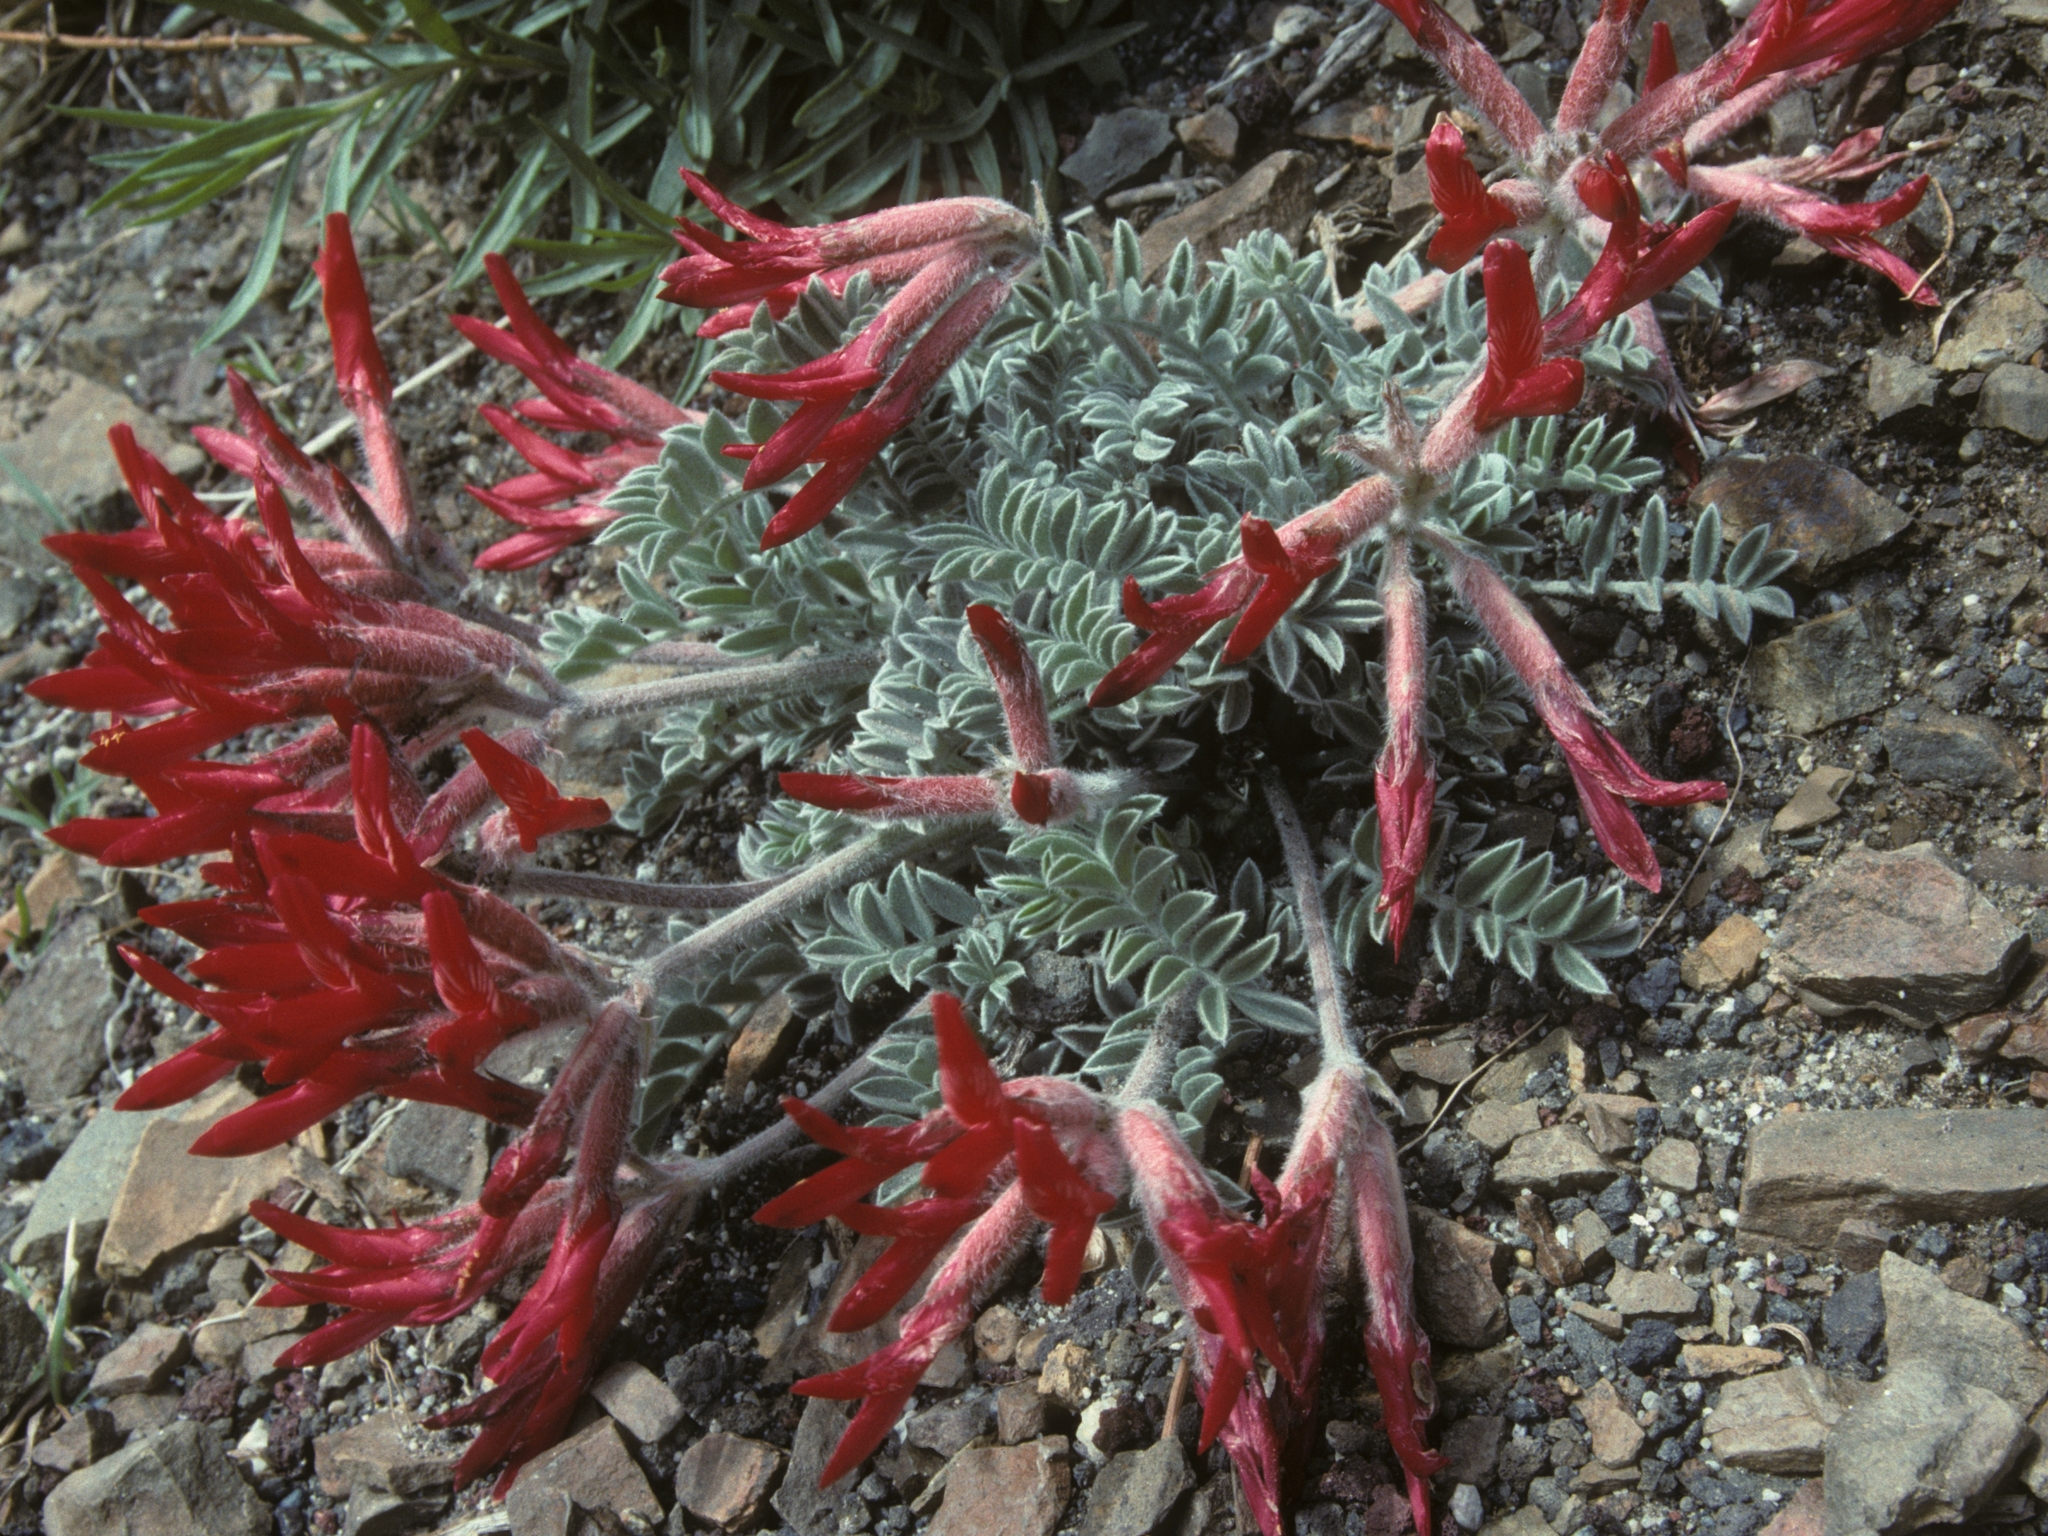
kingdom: Plantae
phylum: Tracheophyta
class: Magnoliopsida
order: Fabales
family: Fabaceae
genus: Astragalus
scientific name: Astragalus coccineus
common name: Scarlet milk-vetch
